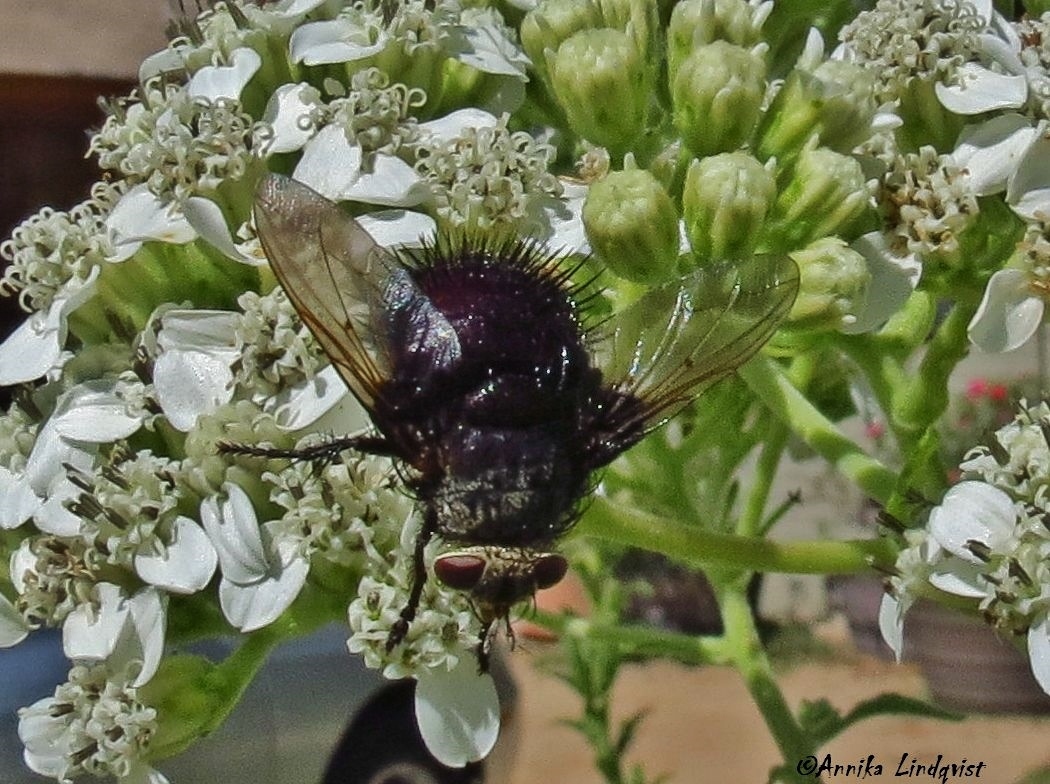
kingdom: Animalia
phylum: Arthropoda
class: Insecta
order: Diptera
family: Tachinidae
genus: Juriniopsis
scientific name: Juriniopsis adusta
